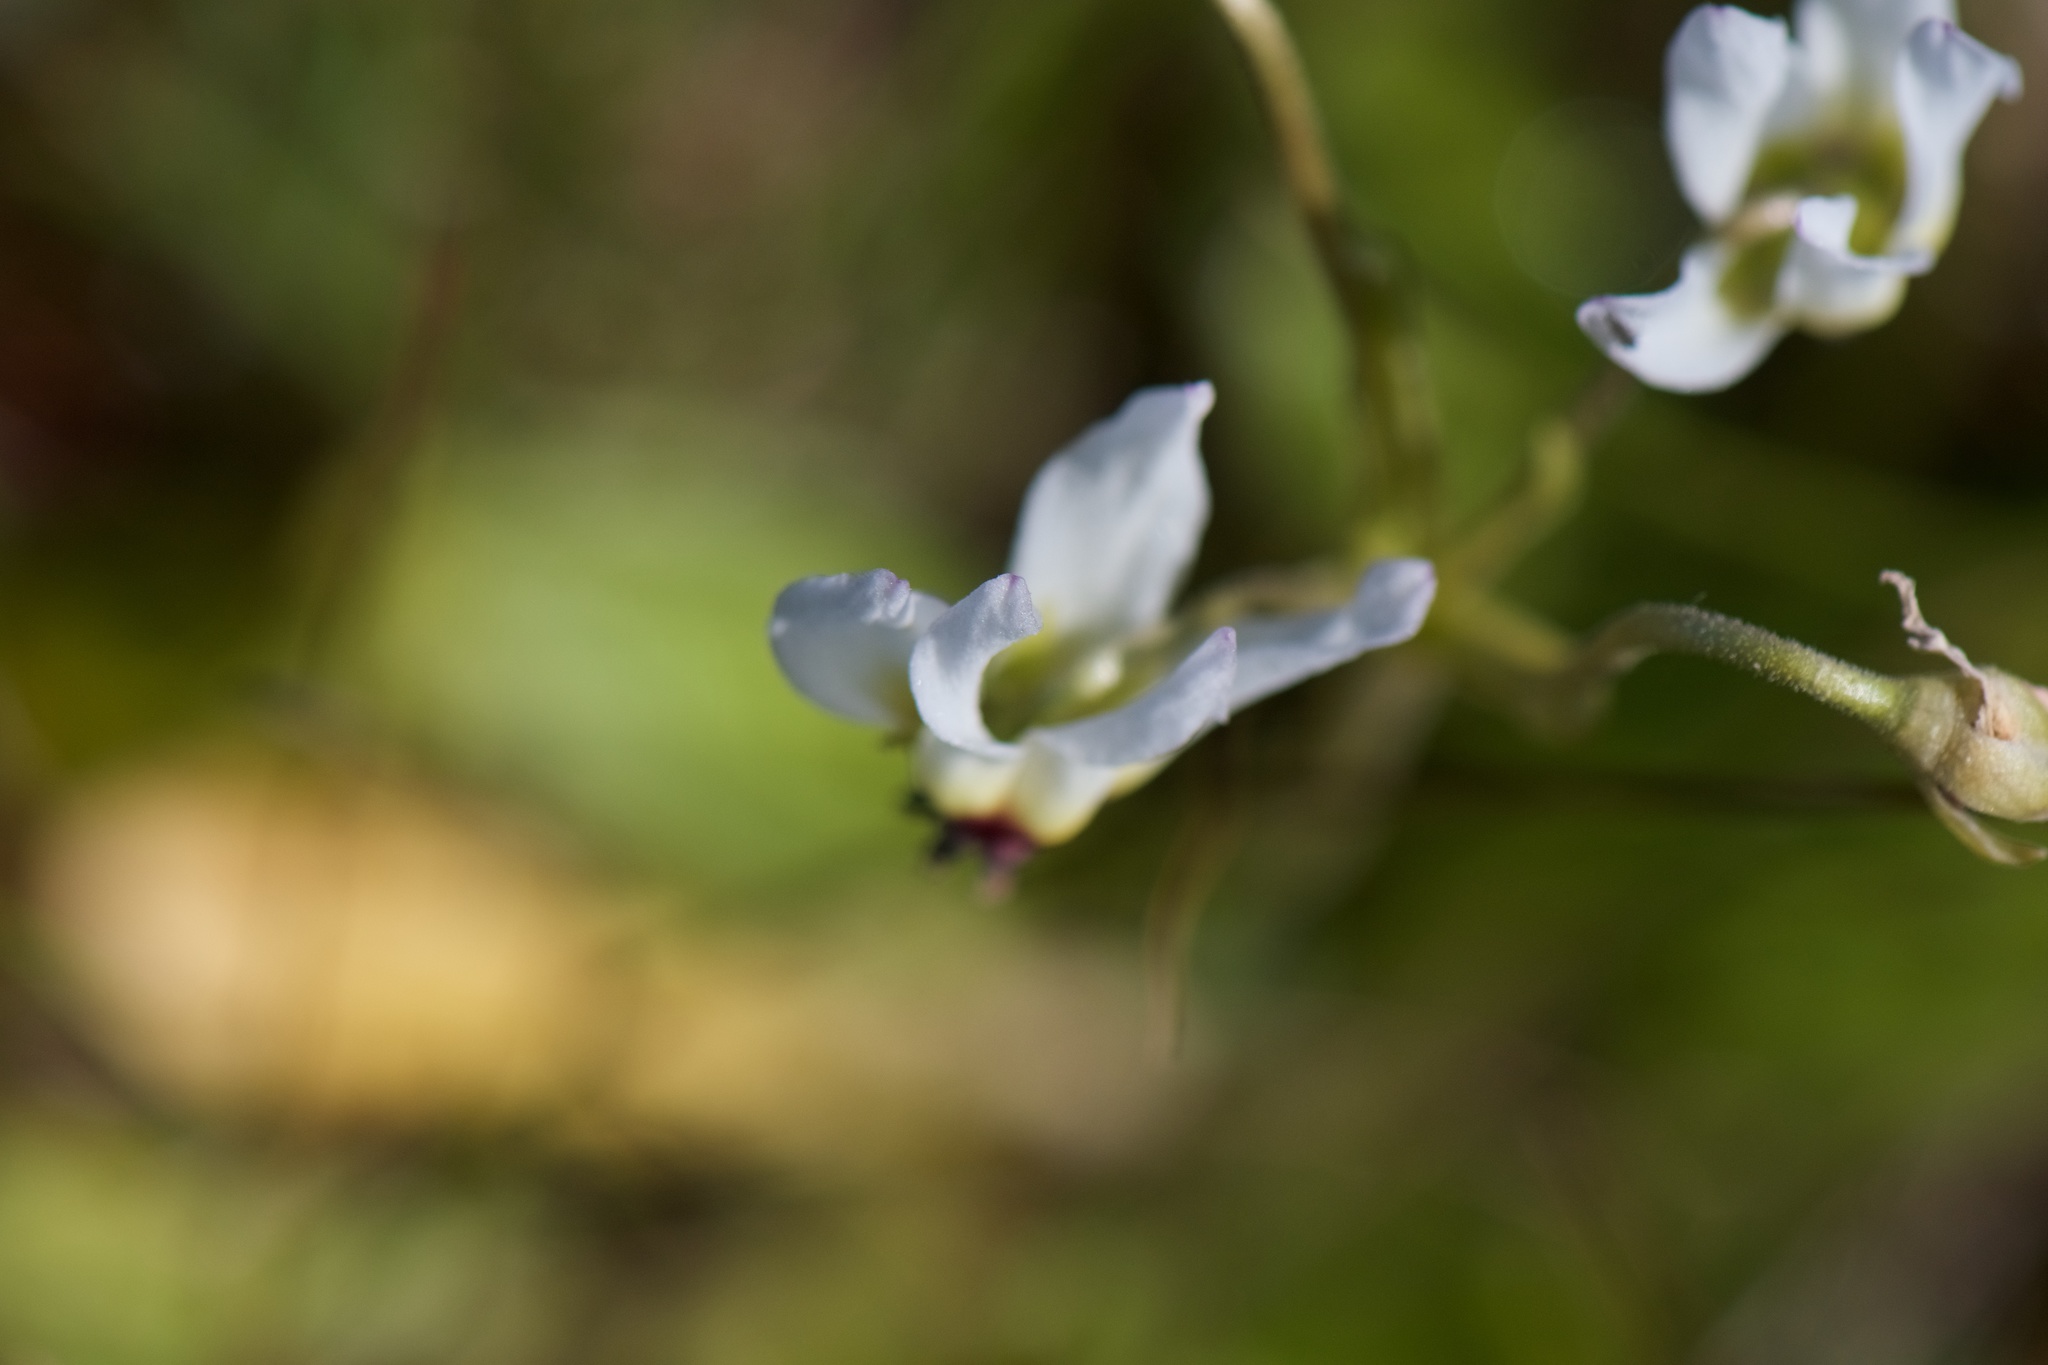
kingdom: Plantae
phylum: Tracheophyta
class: Magnoliopsida
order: Ericales
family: Primulaceae
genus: Dodecatheon
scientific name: Dodecatheon clevelandii
